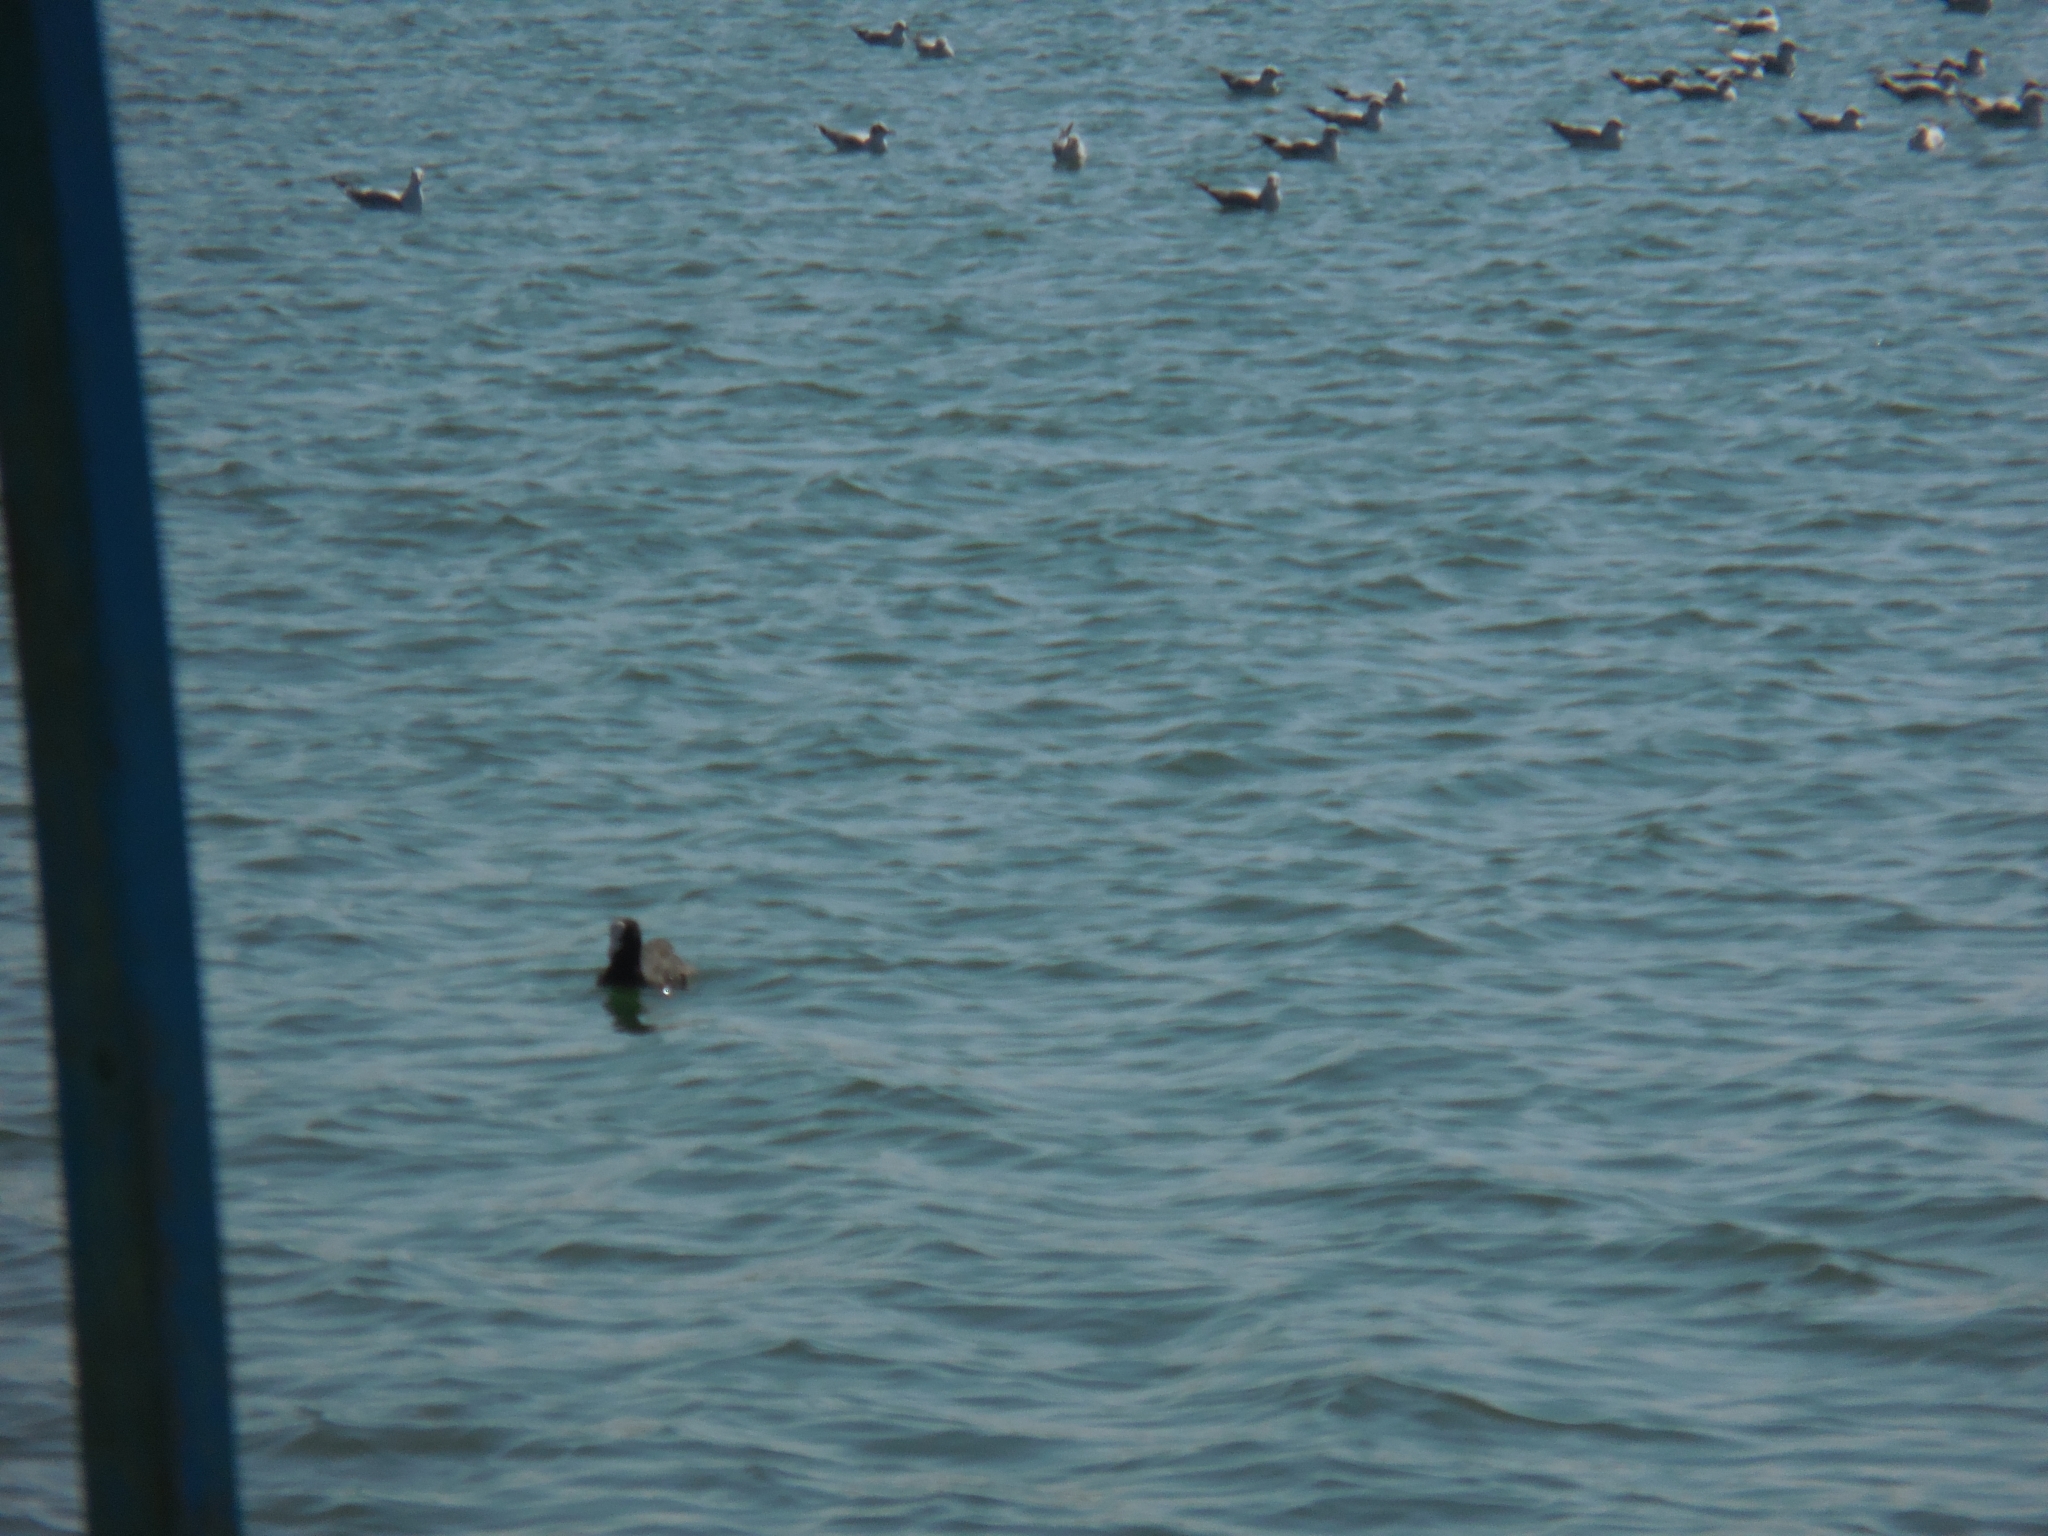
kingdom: Animalia
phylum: Chordata
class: Aves
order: Gruiformes
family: Rallidae
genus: Fulica
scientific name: Fulica atra
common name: Eurasian coot
